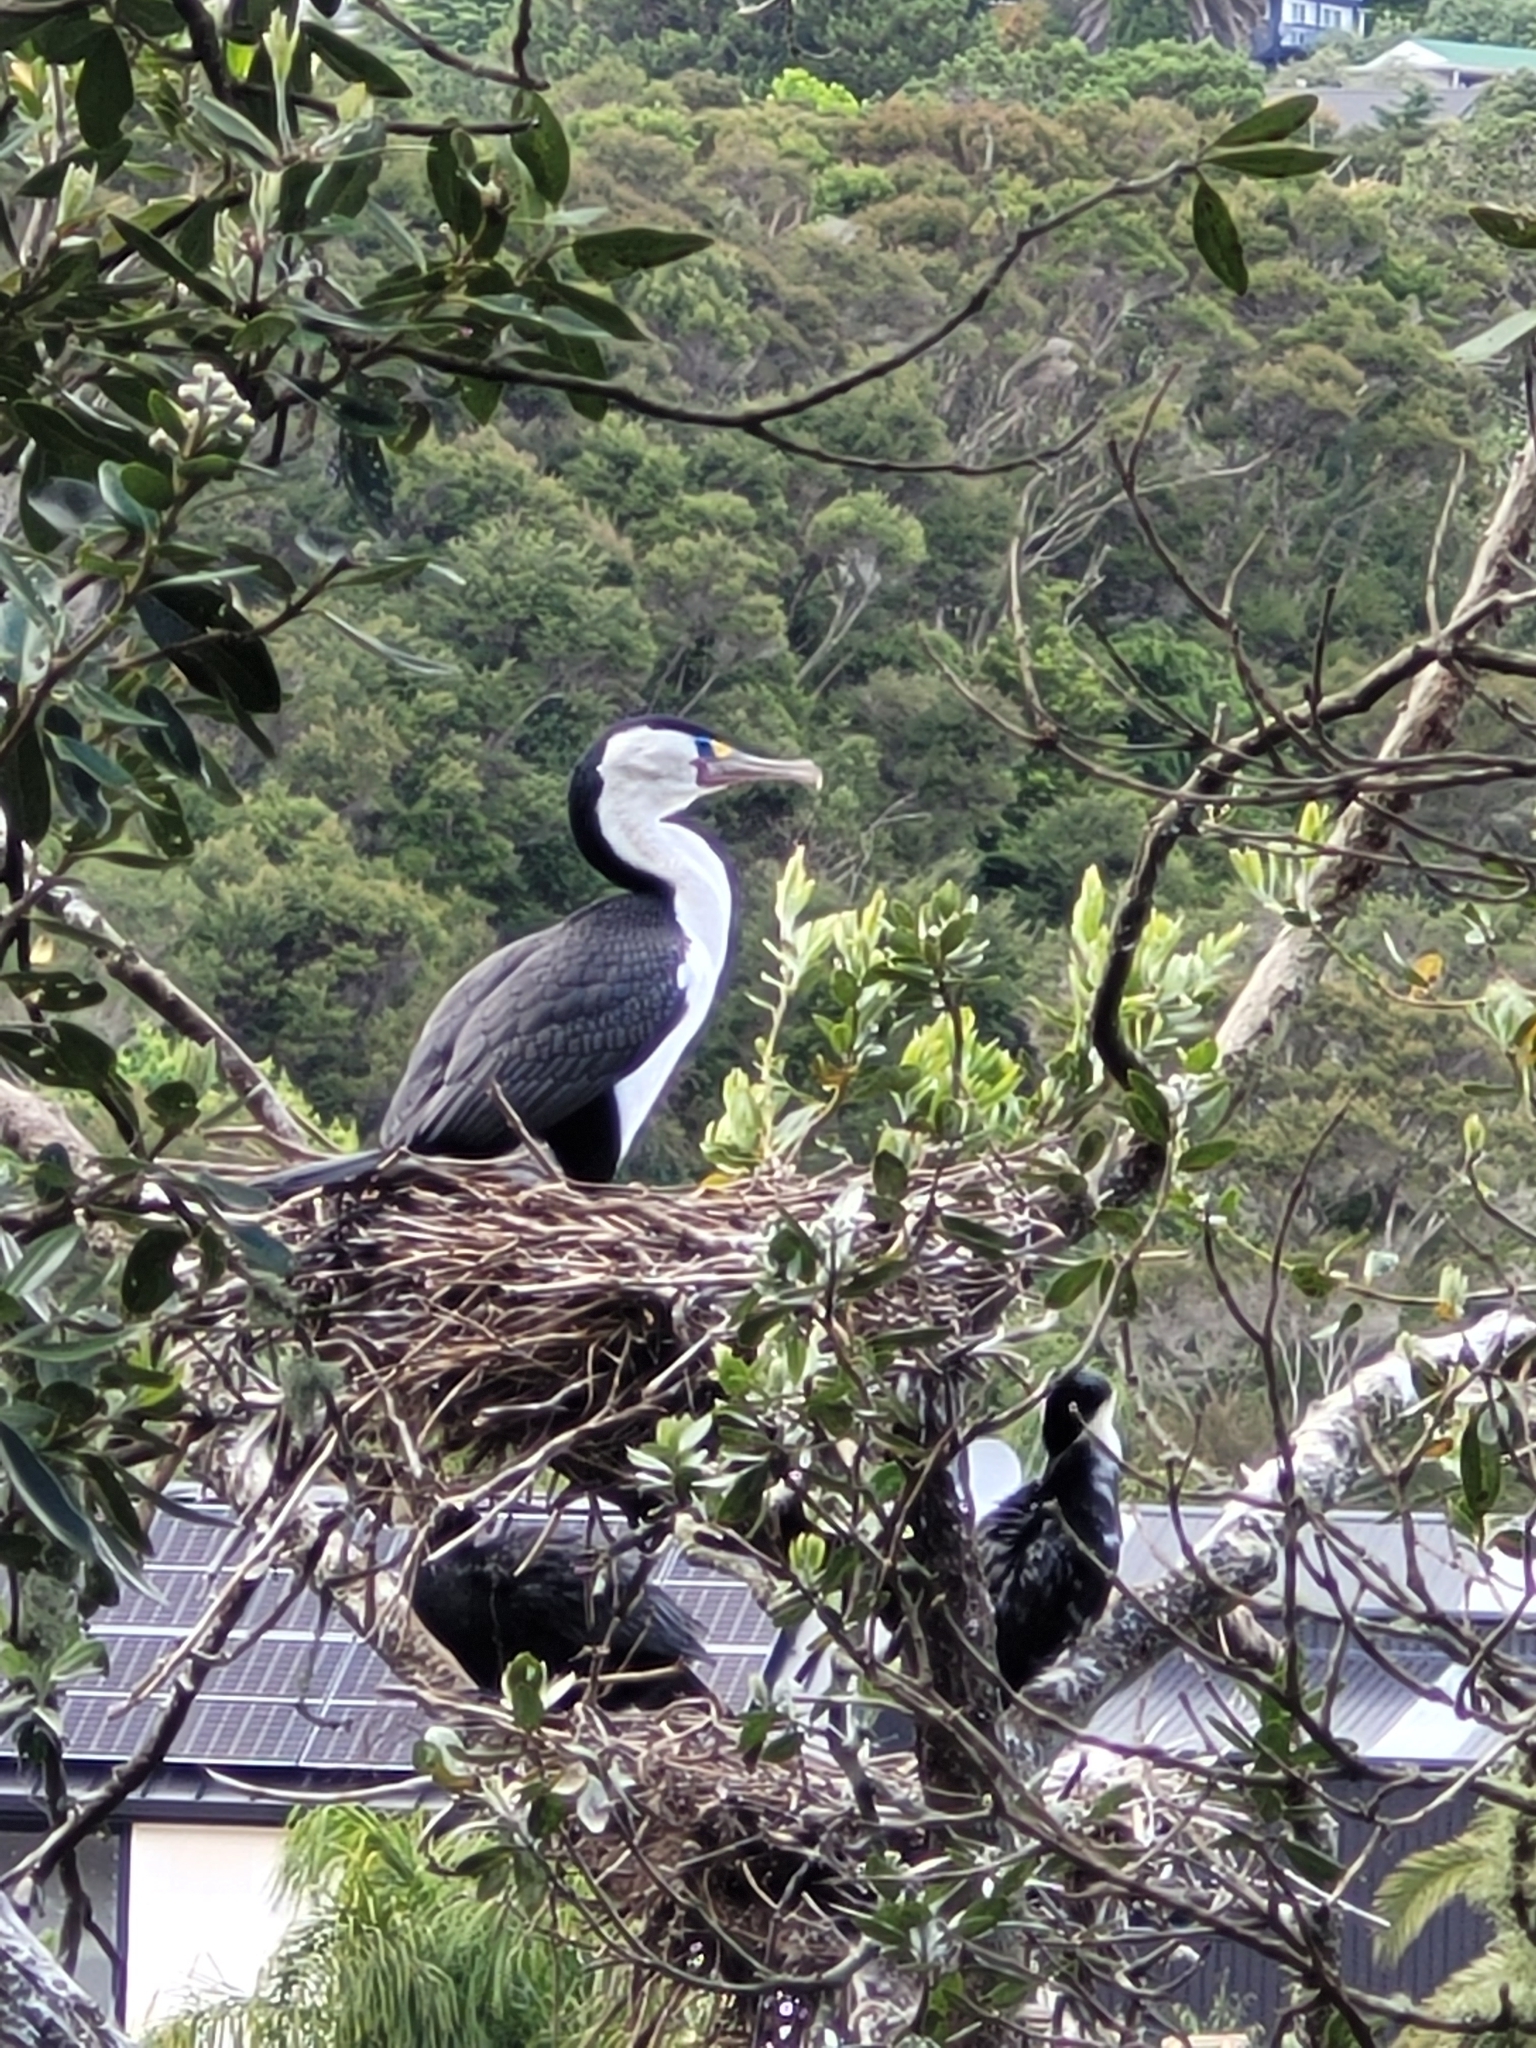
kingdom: Animalia
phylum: Chordata
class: Aves
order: Suliformes
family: Phalacrocoracidae
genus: Phalacrocorax
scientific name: Phalacrocorax varius
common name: Pied cormorant
